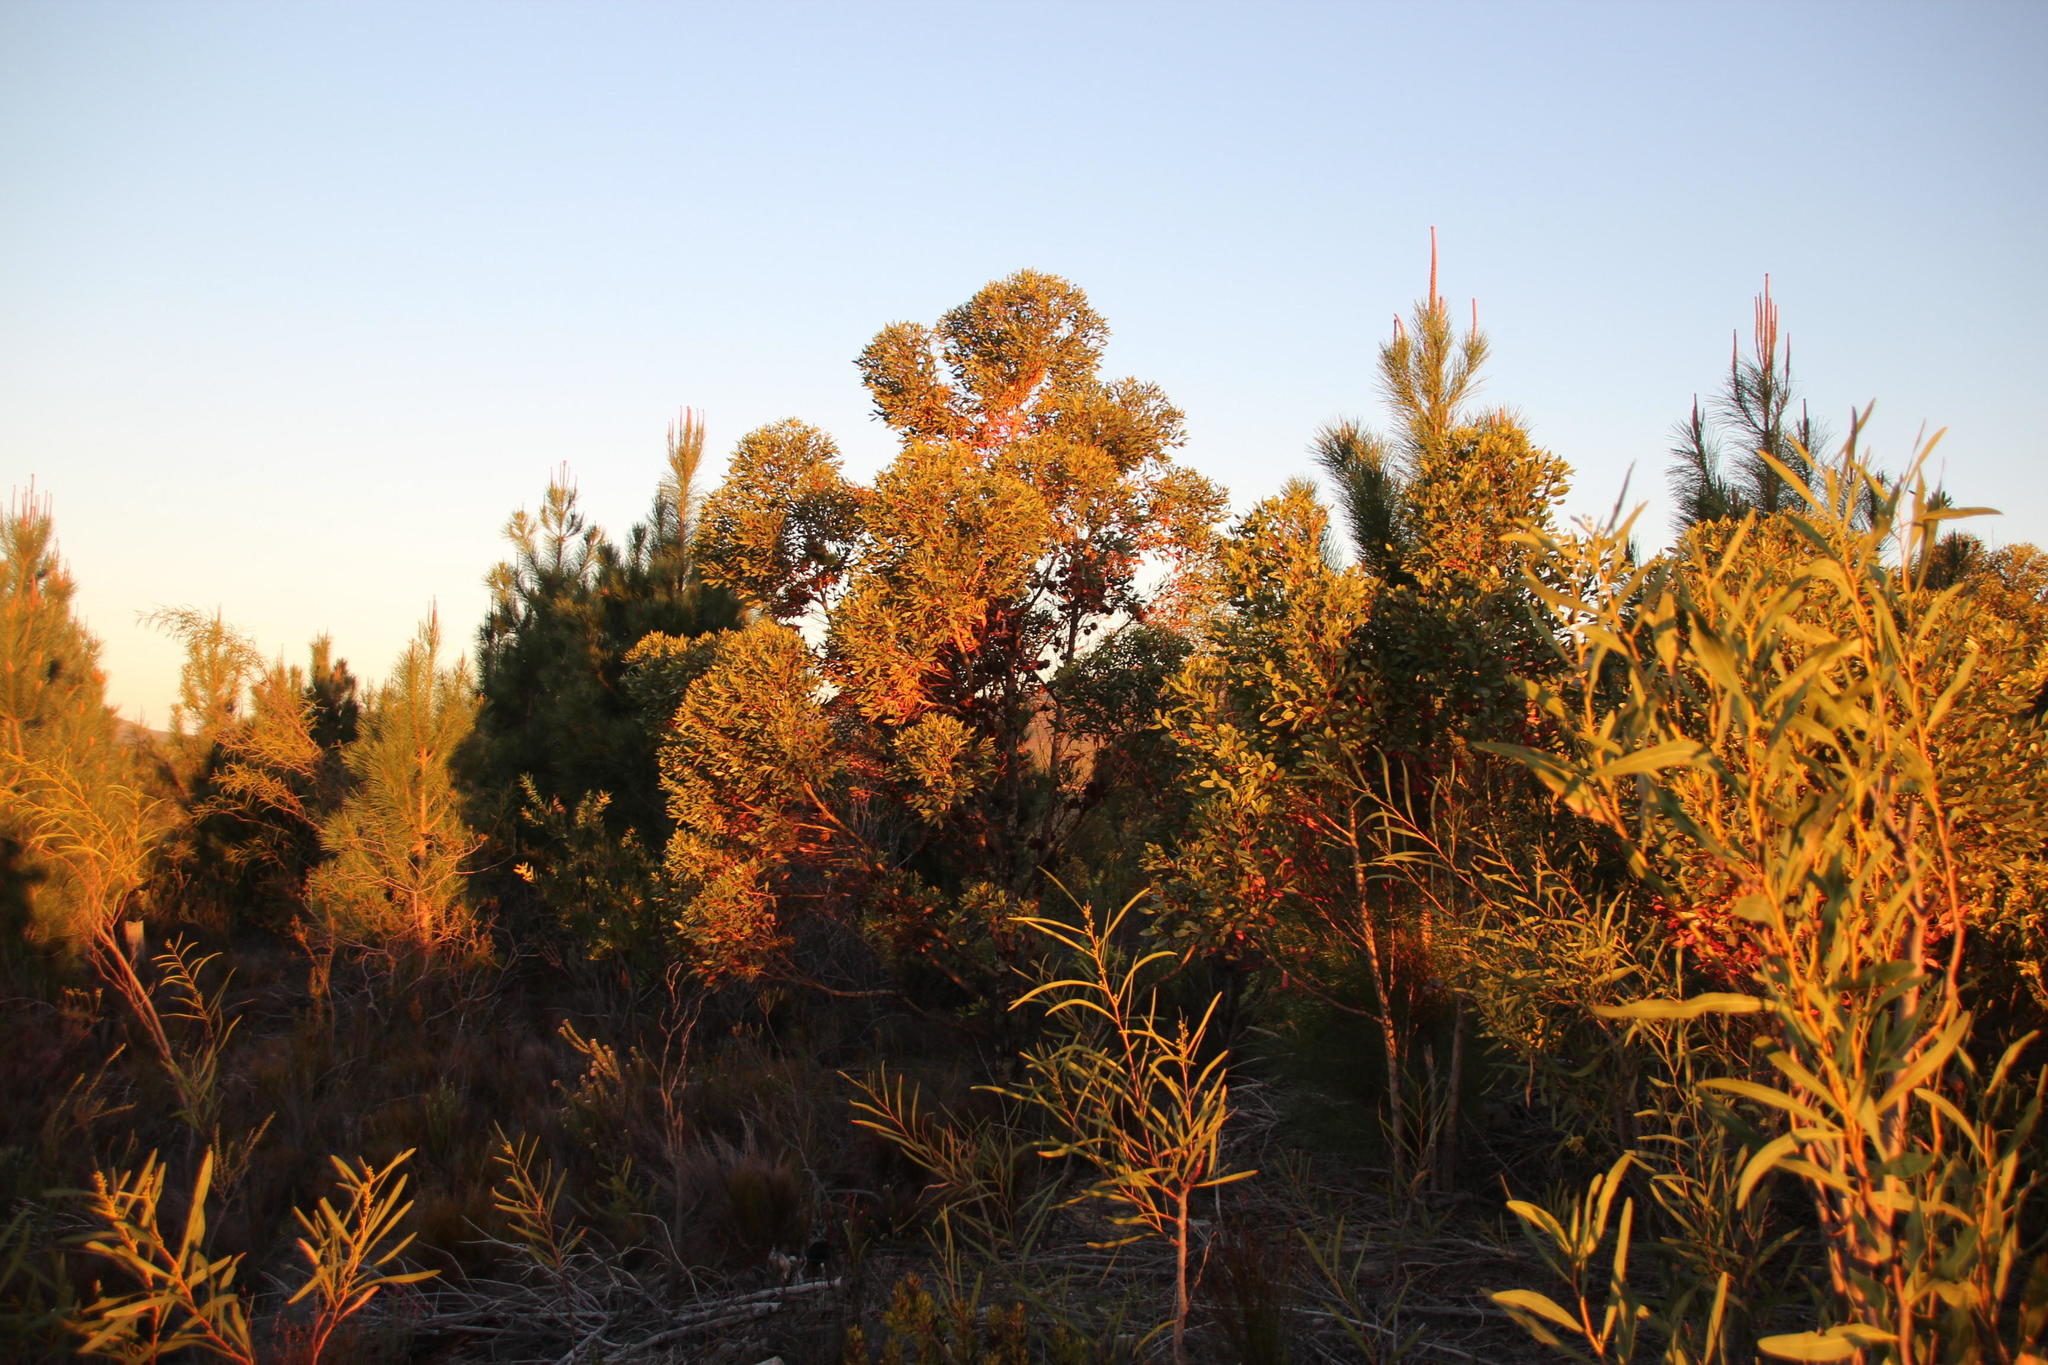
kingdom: Plantae
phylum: Tracheophyta
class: Magnoliopsida
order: Myrtales
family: Myrtaceae
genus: Eucalyptus
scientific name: Eucalyptus conferruminata
